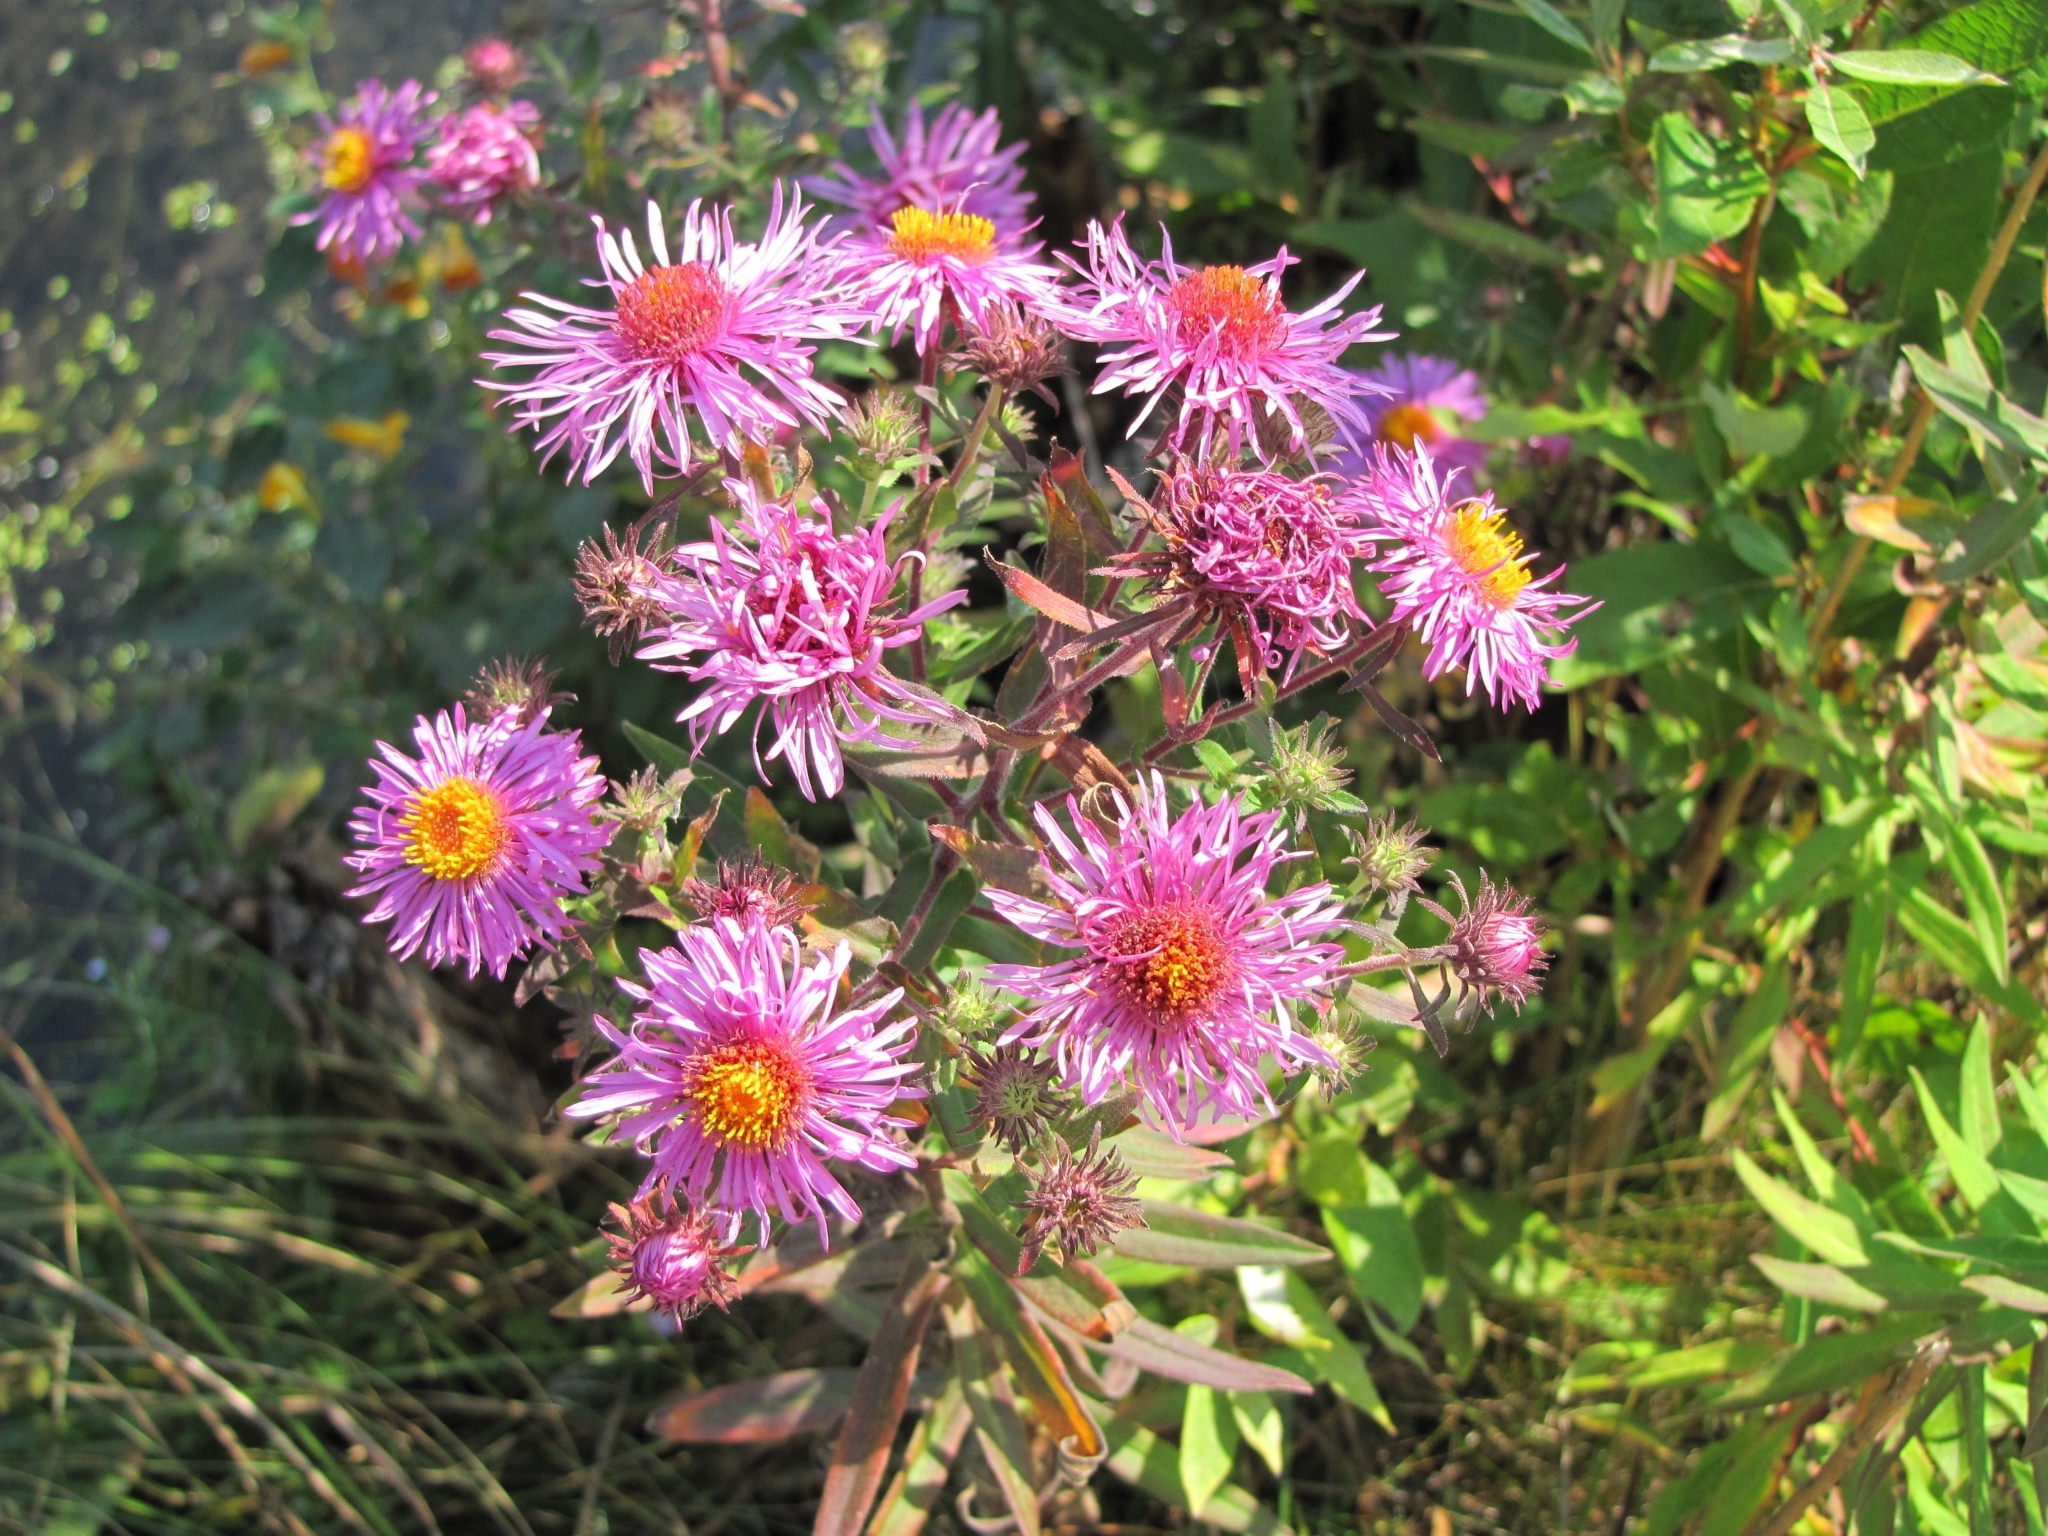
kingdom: Plantae
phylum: Tracheophyta
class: Magnoliopsida
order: Asterales
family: Asteraceae
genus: Symphyotrichum
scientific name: Symphyotrichum novae-angliae
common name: Michaelmas daisy
